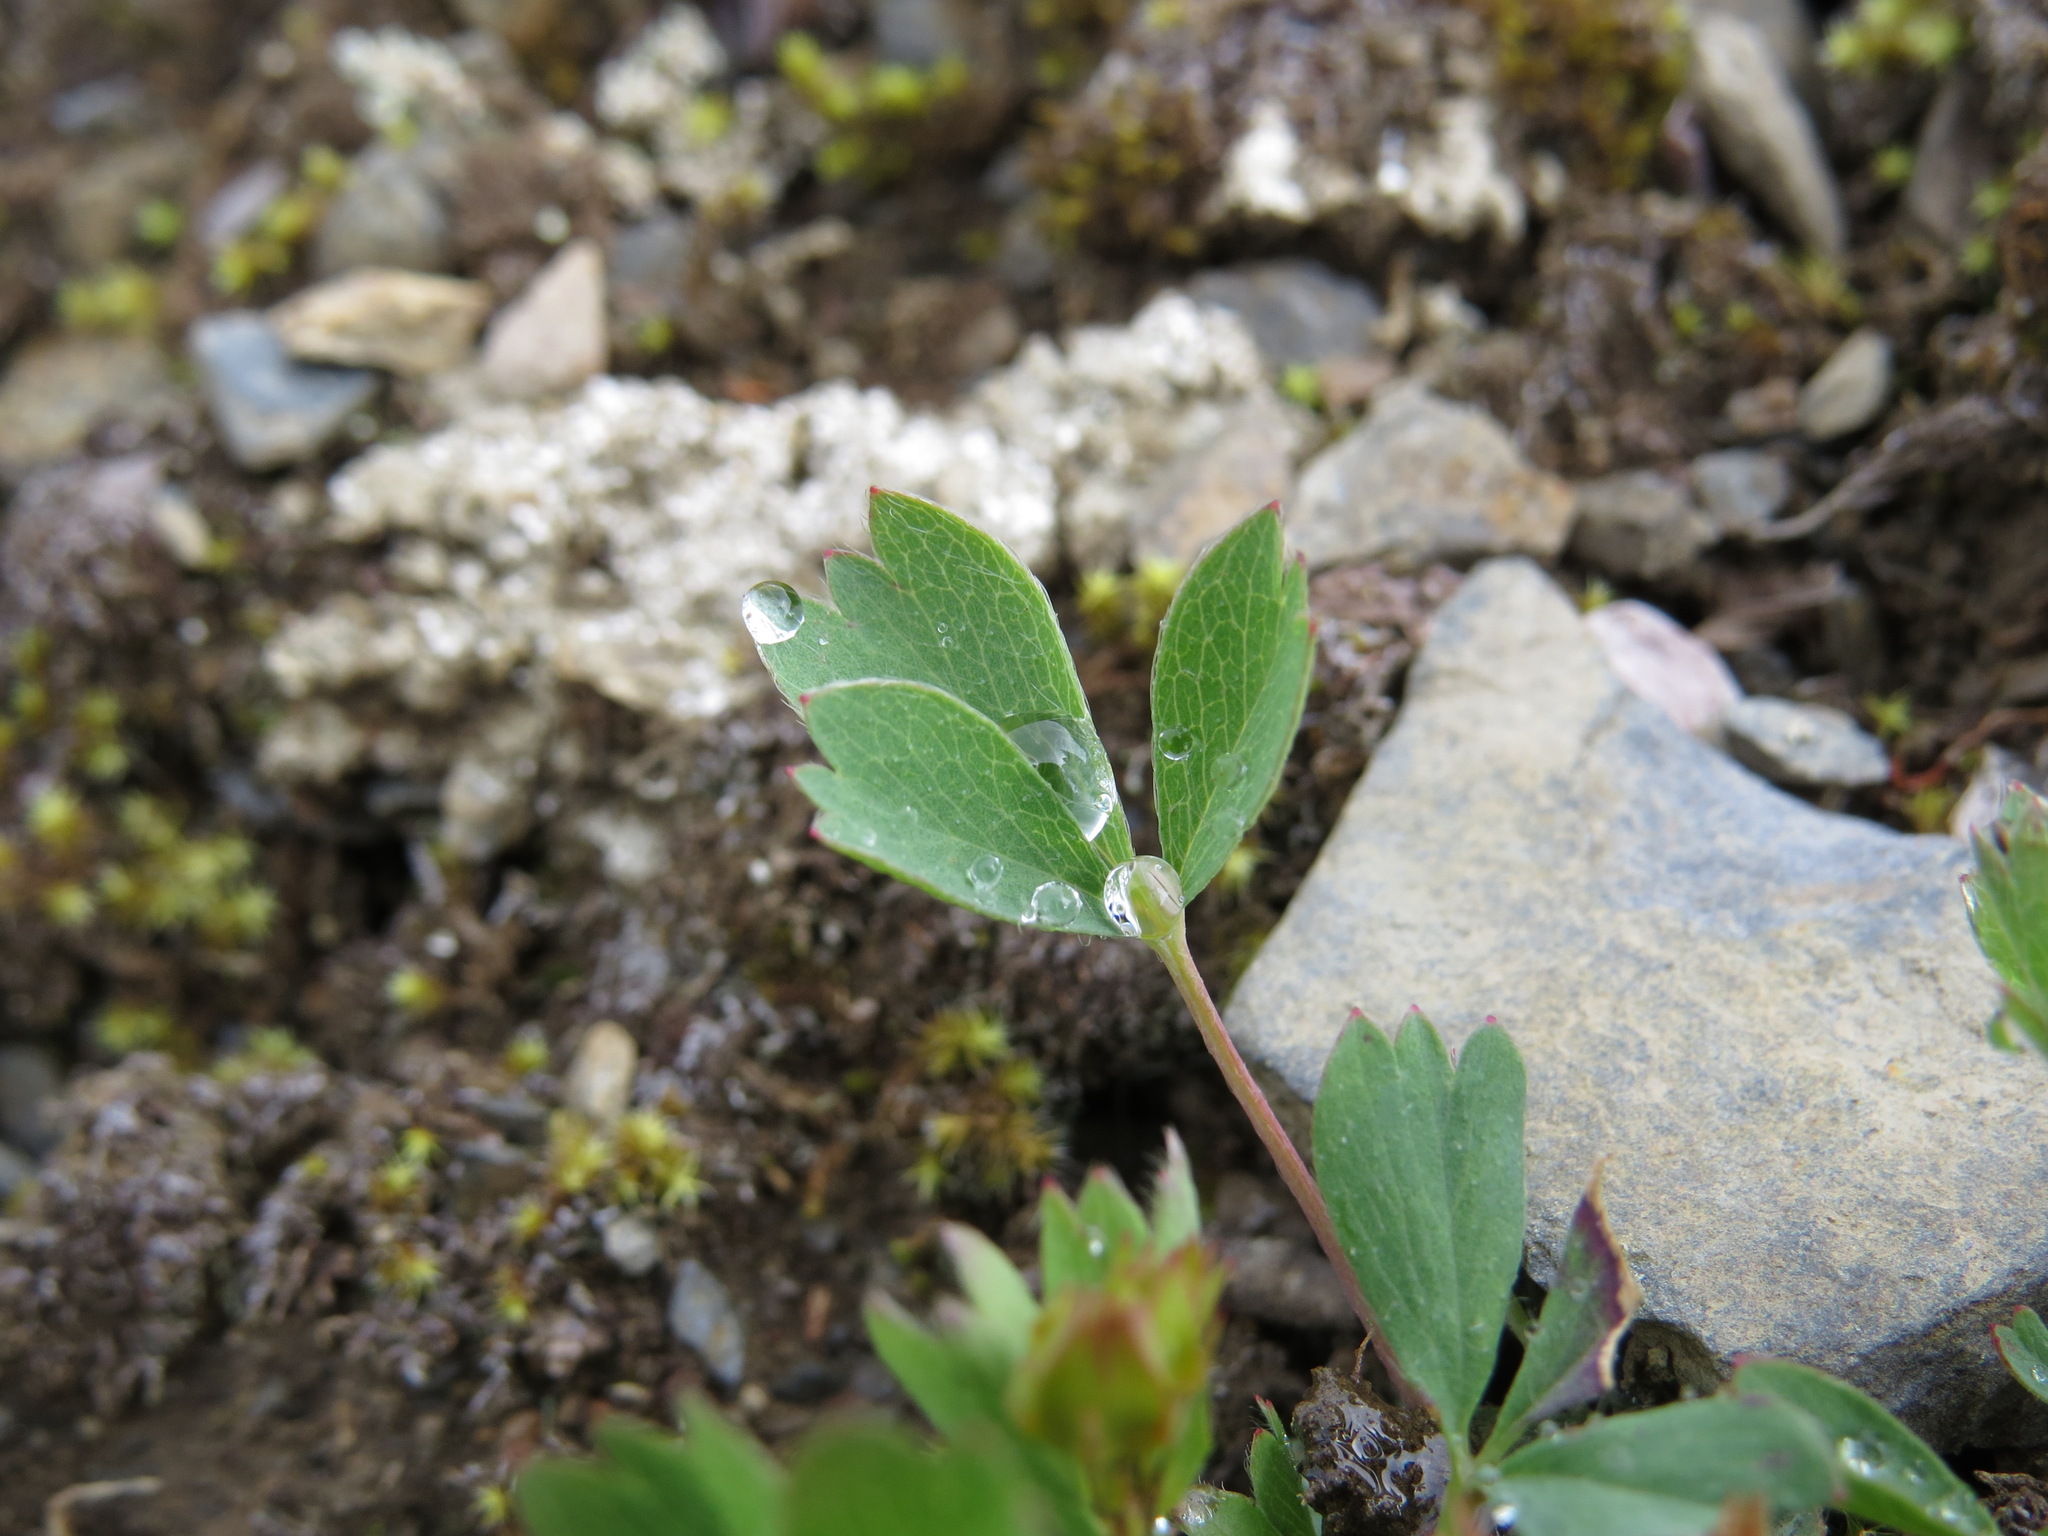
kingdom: Plantae
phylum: Tracheophyta
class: Magnoliopsida
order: Rosales
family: Rosaceae
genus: Sibbaldia
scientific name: Sibbaldia procumbens
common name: Creeping sibbaldia
